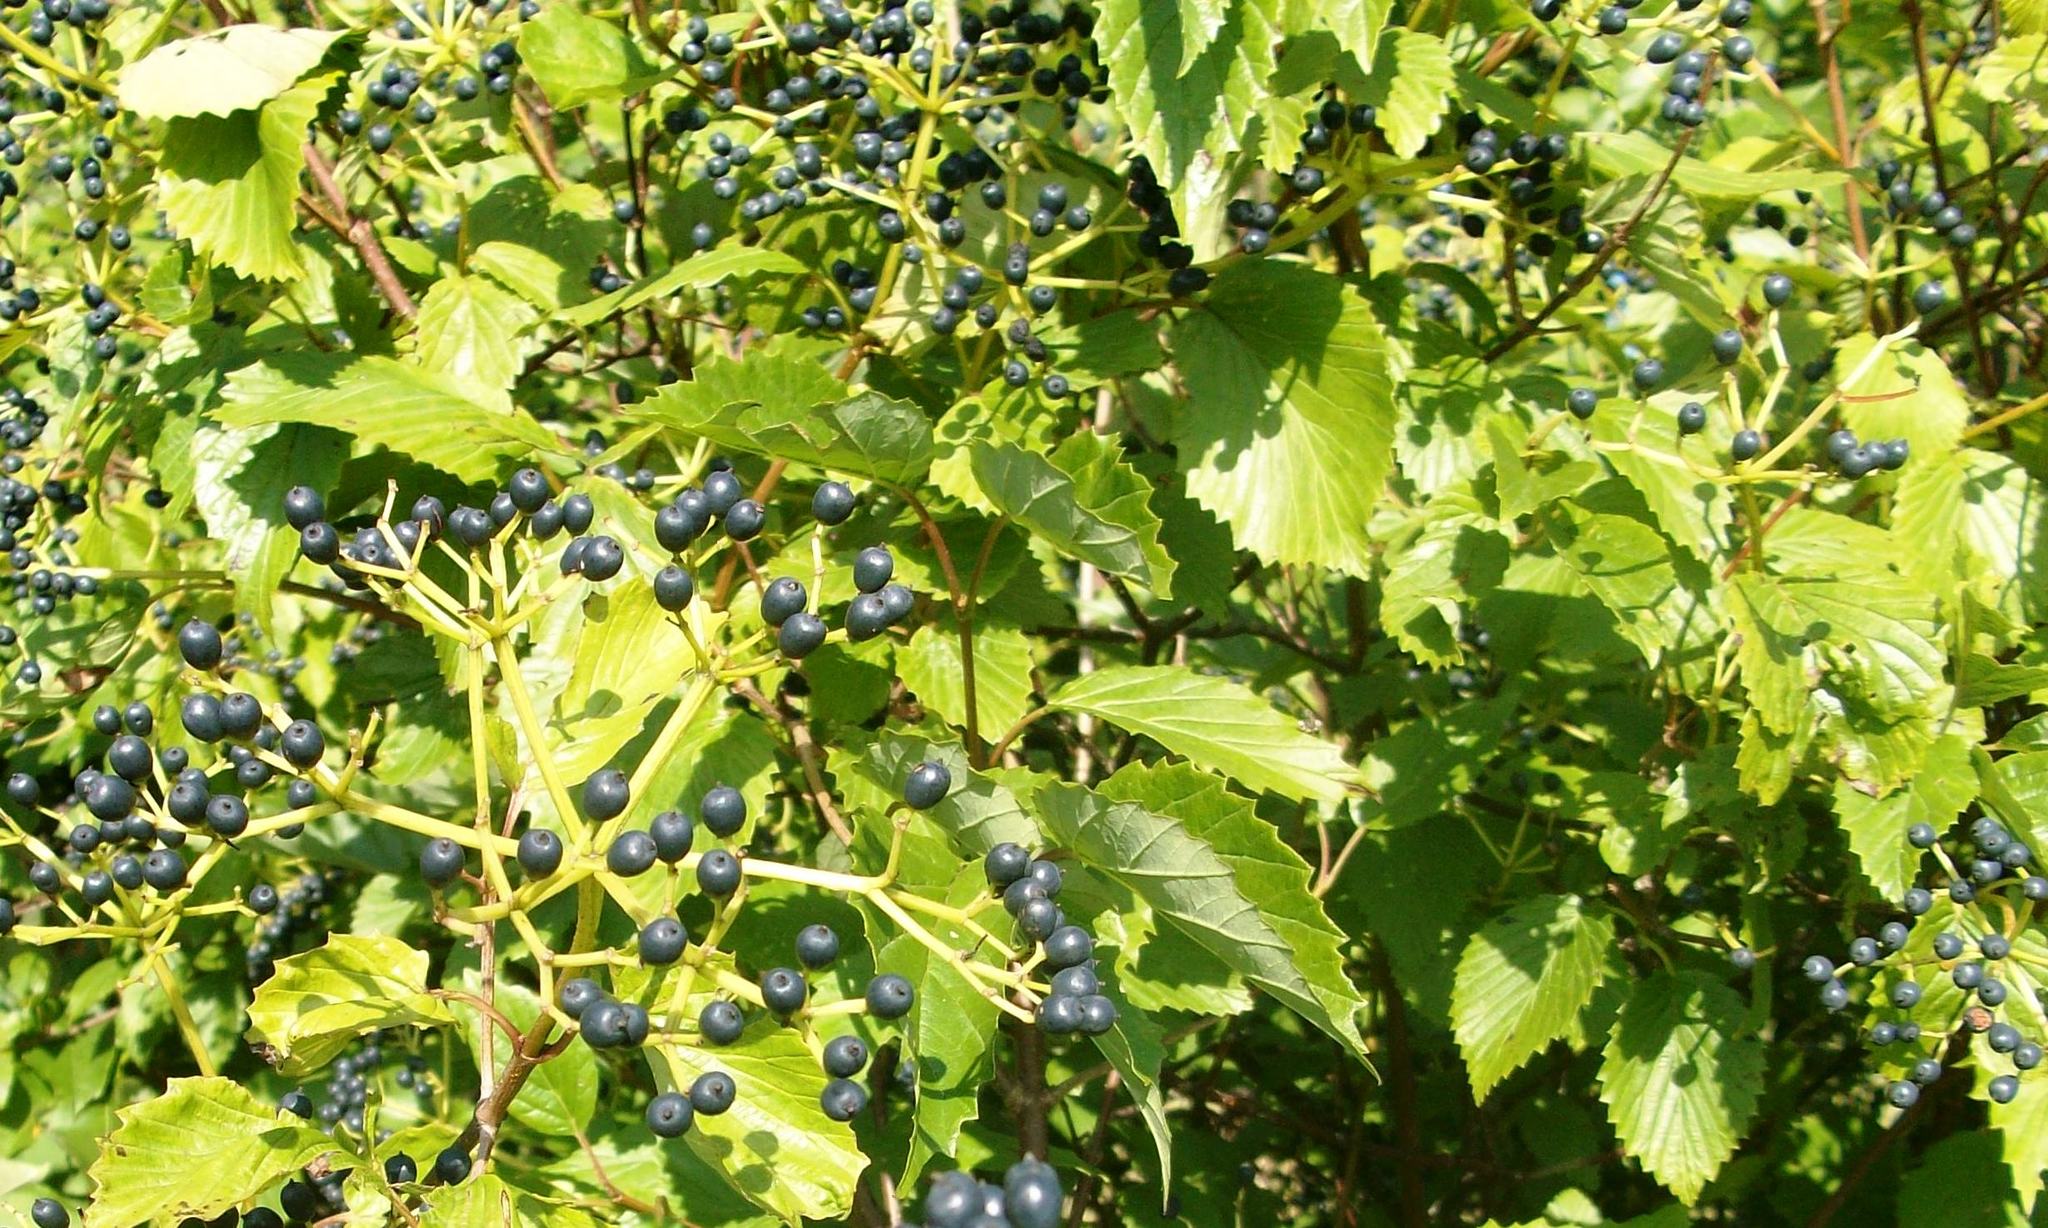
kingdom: Plantae
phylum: Tracheophyta
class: Magnoliopsida
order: Dipsacales
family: Viburnaceae
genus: Viburnum
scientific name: Viburnum recognitum
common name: Northern arrow-wood
